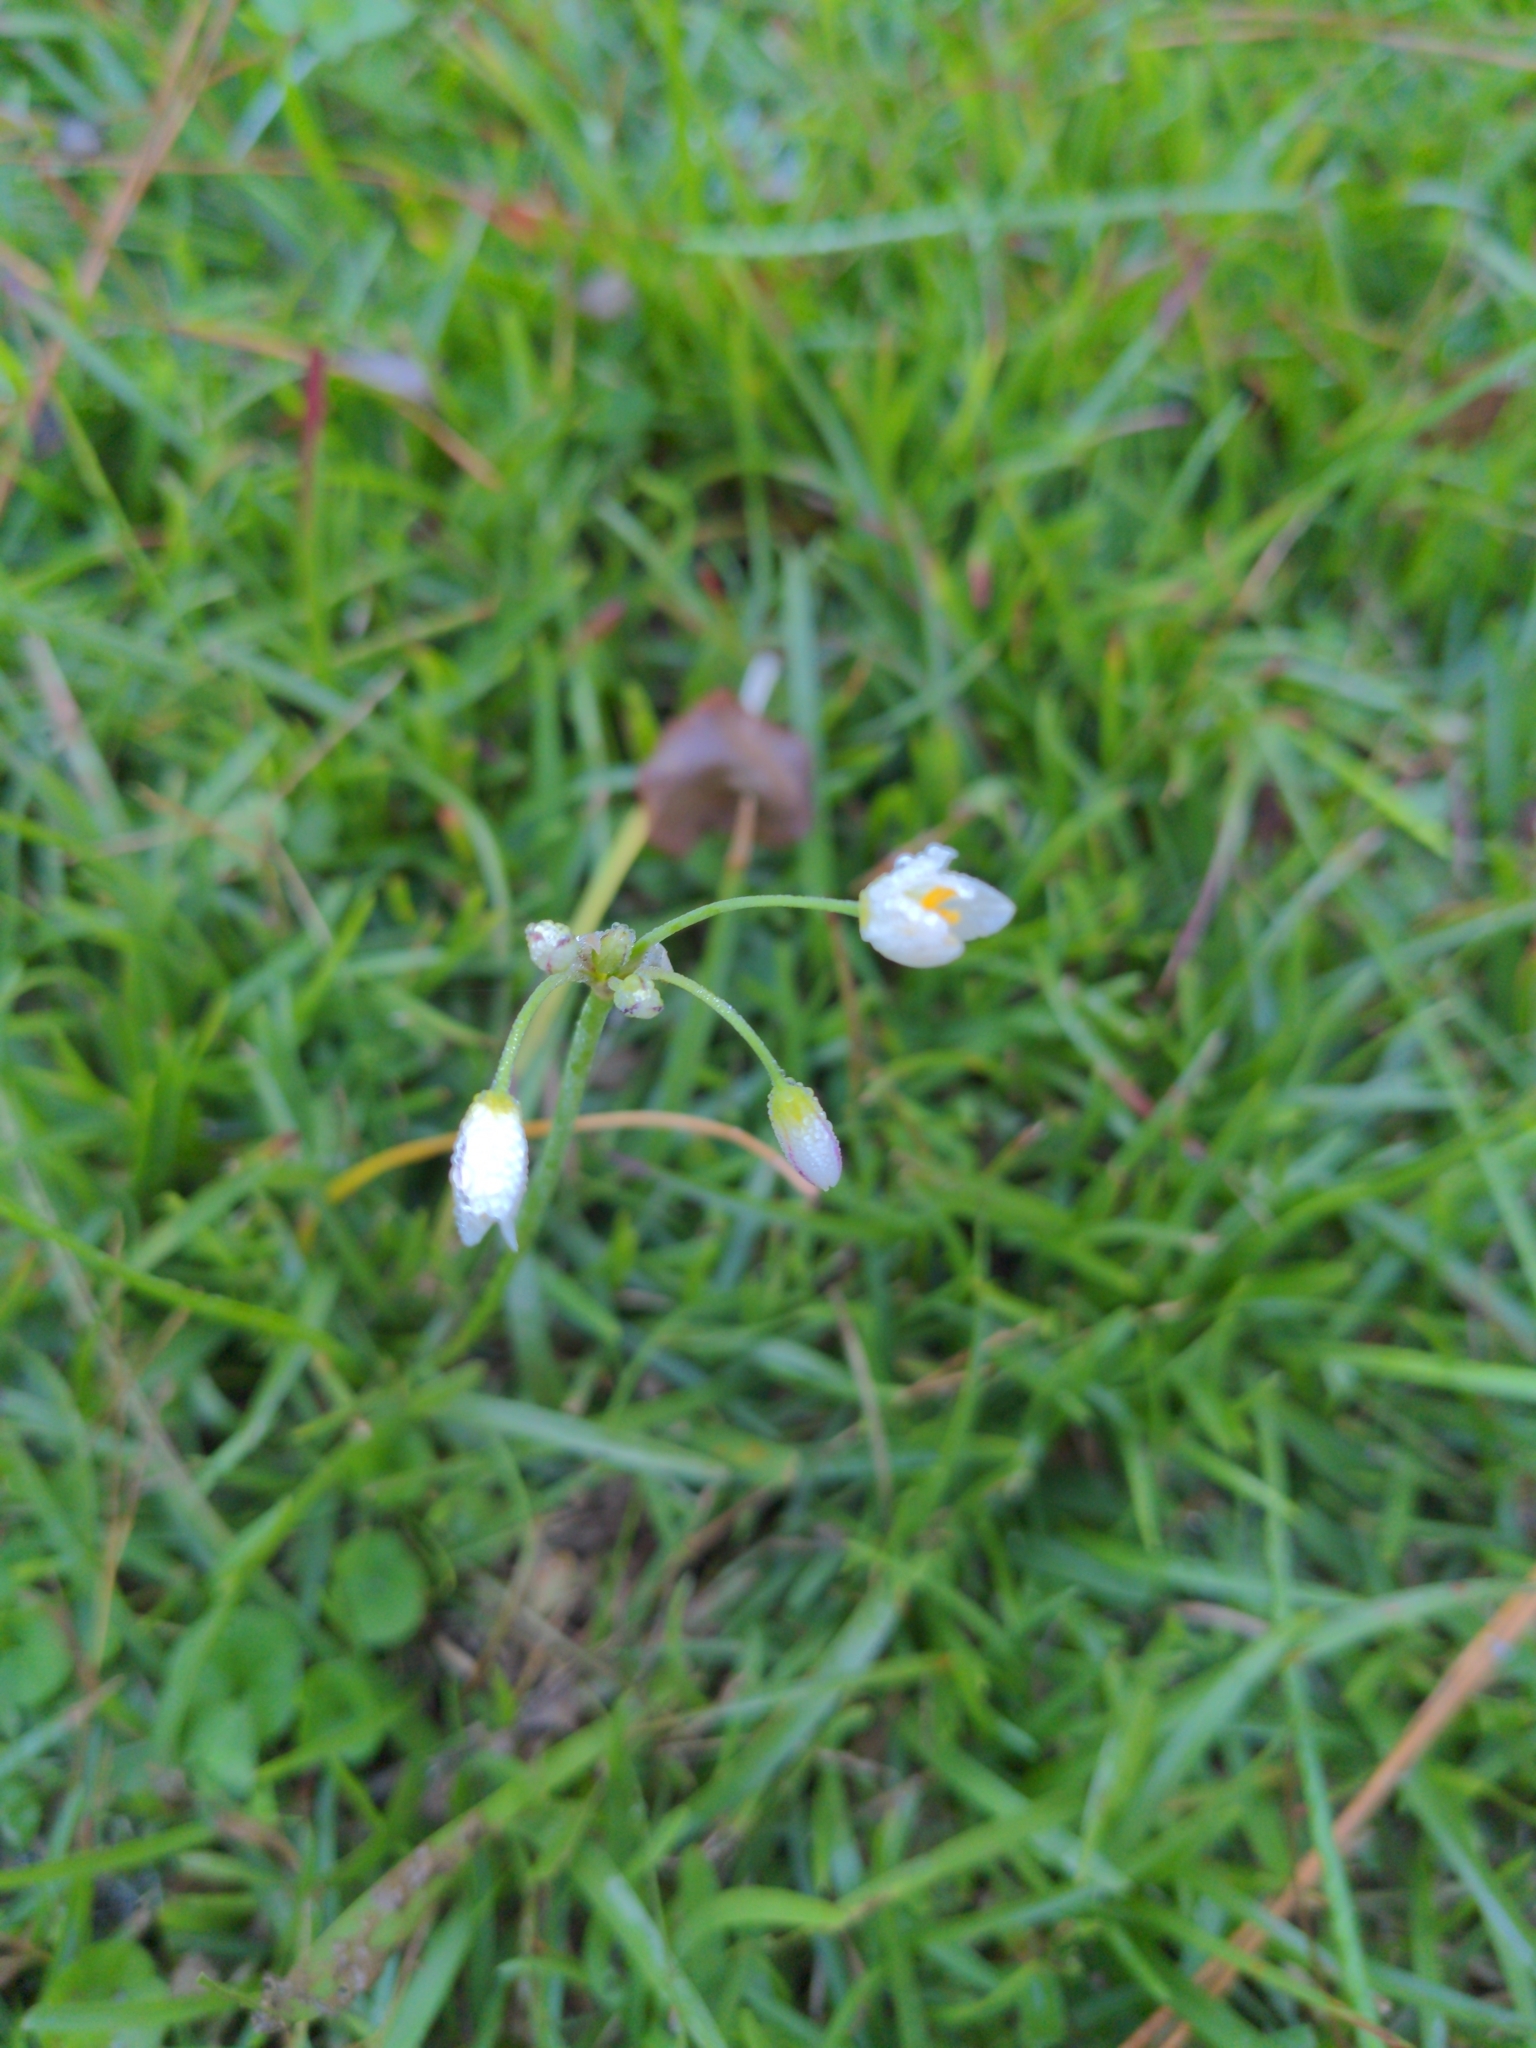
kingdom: Plantae
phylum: Tracheophyta
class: Liliopsida
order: Asparagales
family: Amaryllidaceae
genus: Nothoscordum
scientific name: Nothoscordum bivalve
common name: Crow-poison
